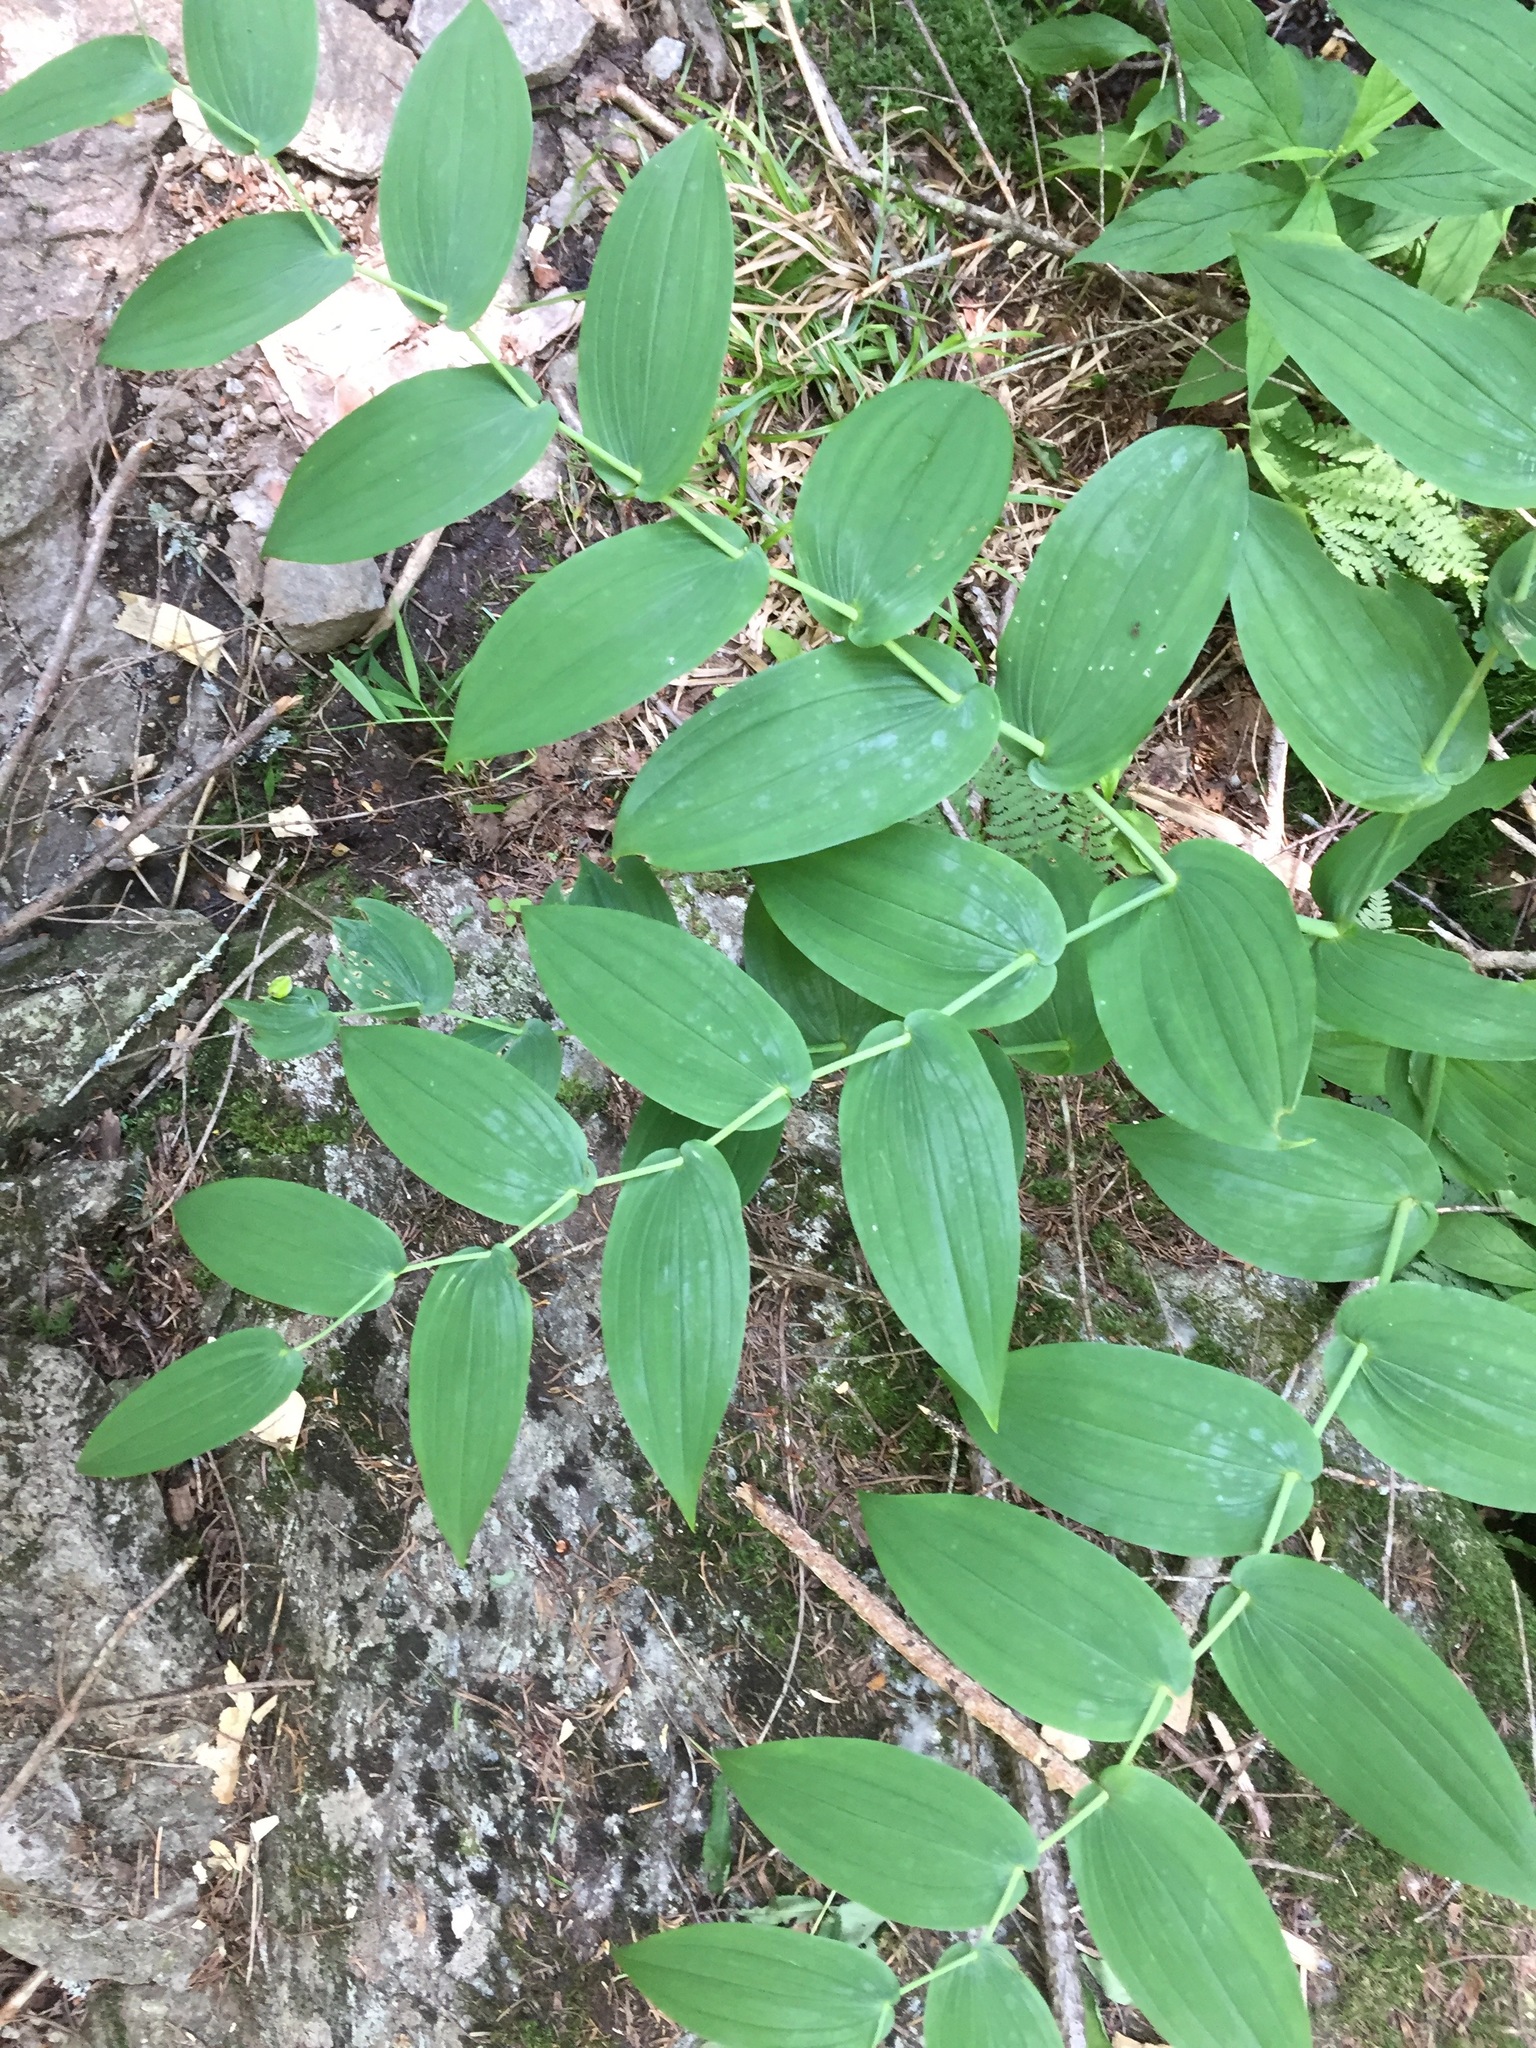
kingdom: Plantae
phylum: Tracheophyta
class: Liliopsida
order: Liliales
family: Liliaceae
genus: Streptopus
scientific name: Streptopus amplexifolius
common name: Clasp twisted stalk
